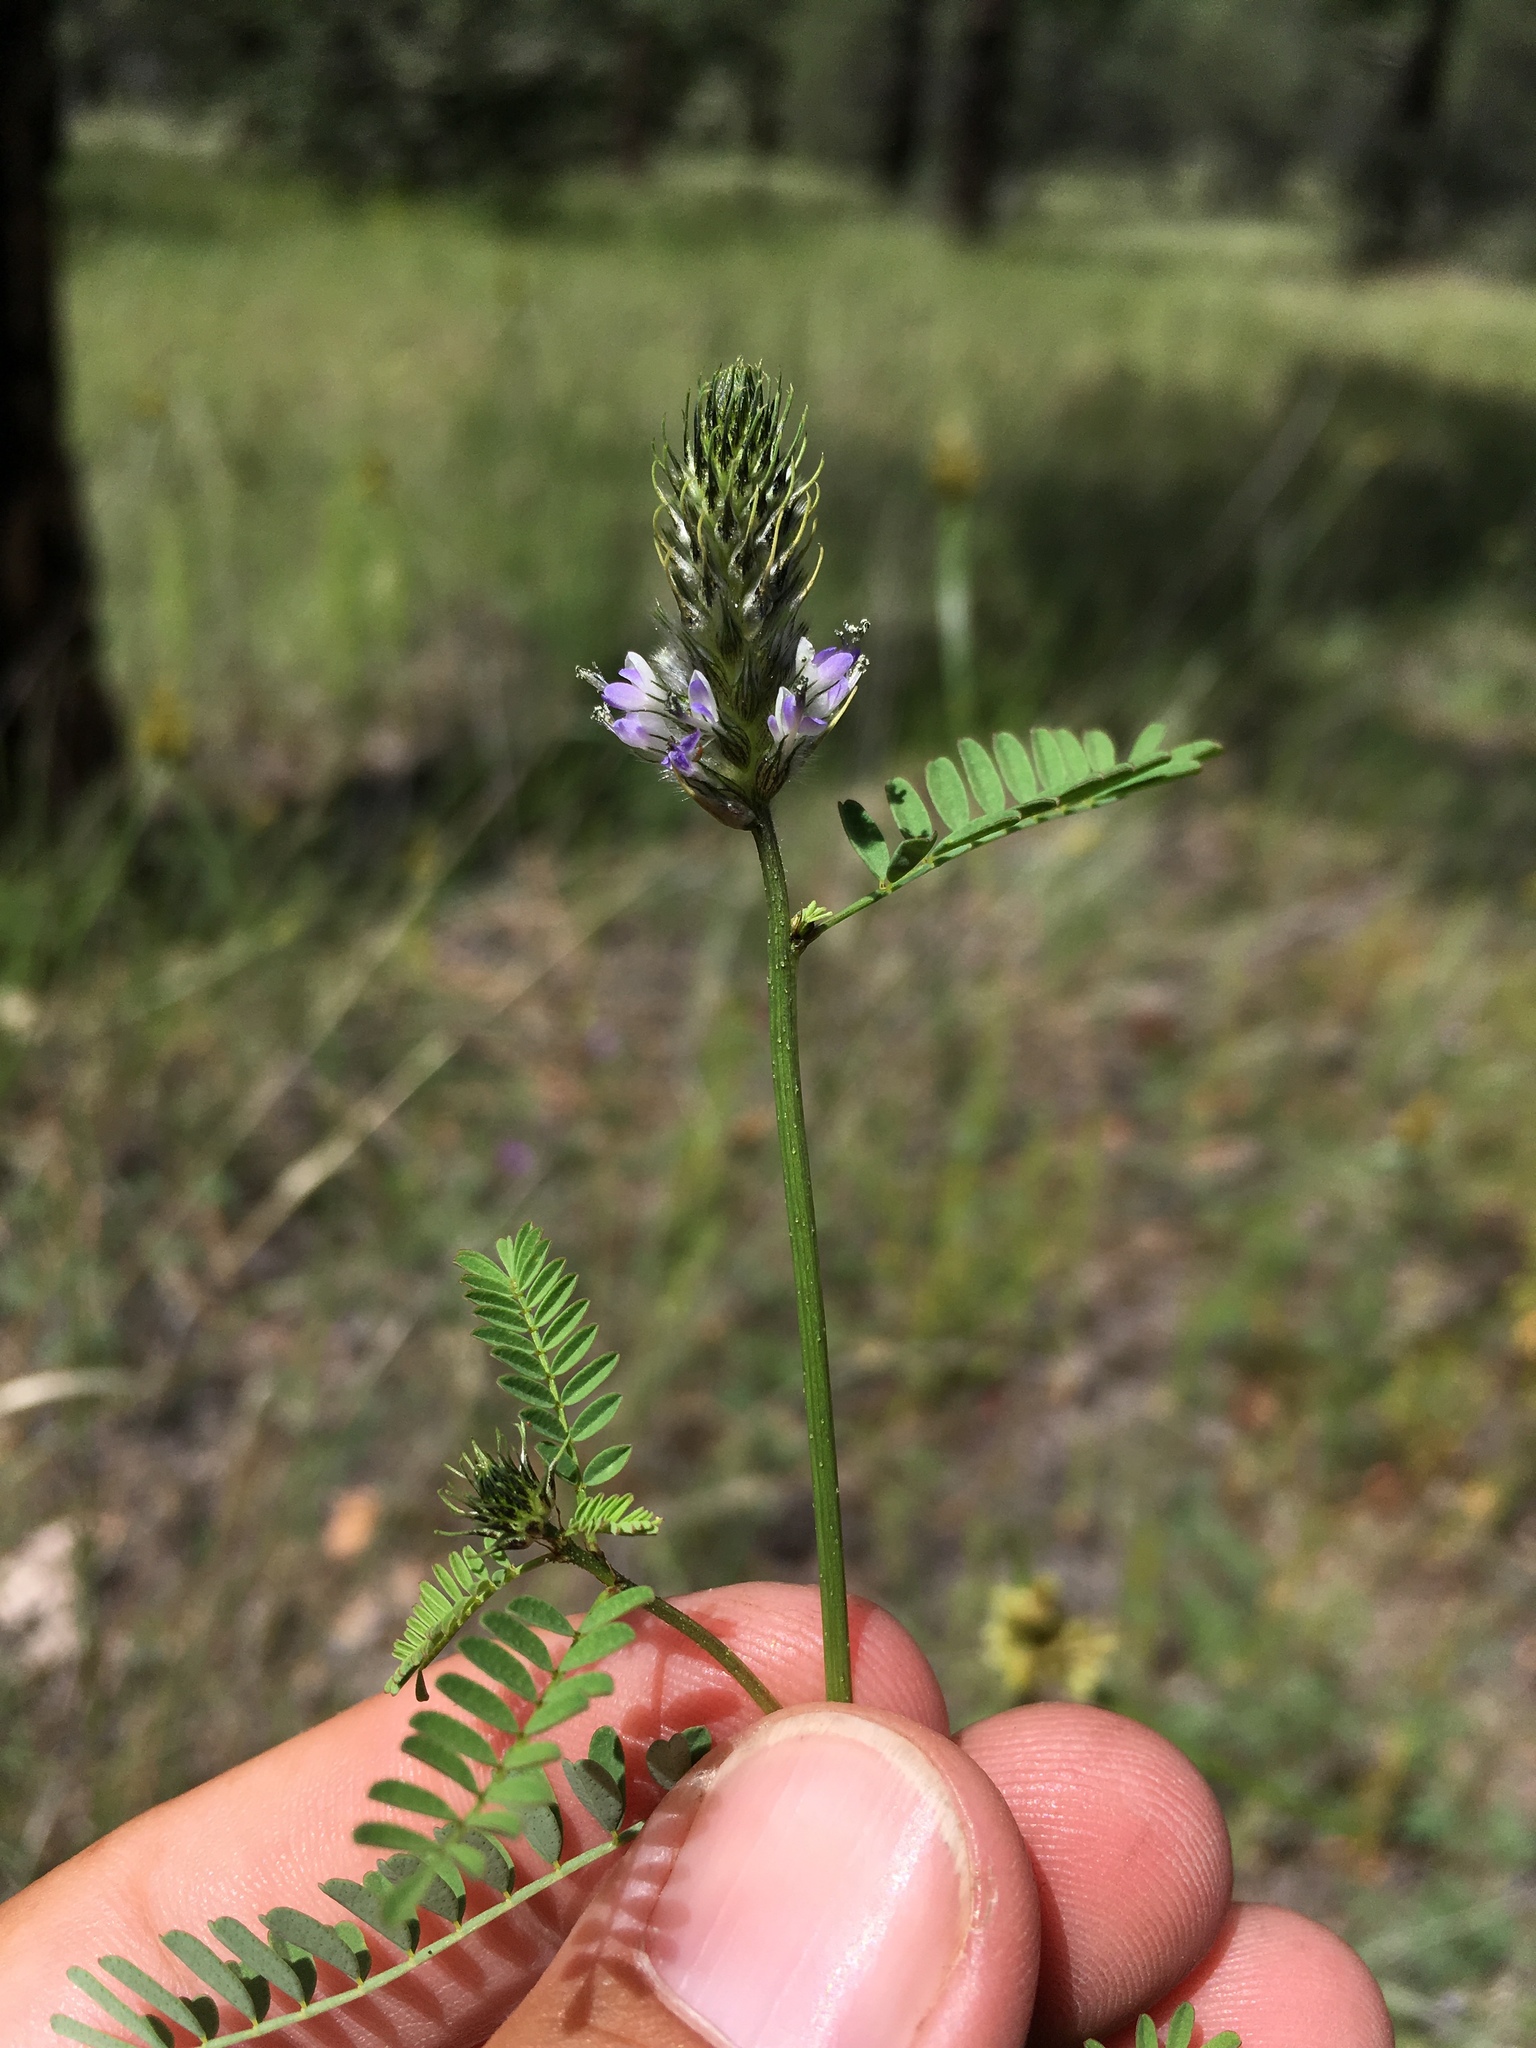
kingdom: Plantae
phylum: Tracheophyta
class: Magnoliopsida
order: Fabales
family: Fabaceae
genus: Dalea
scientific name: Dalea urceolata
